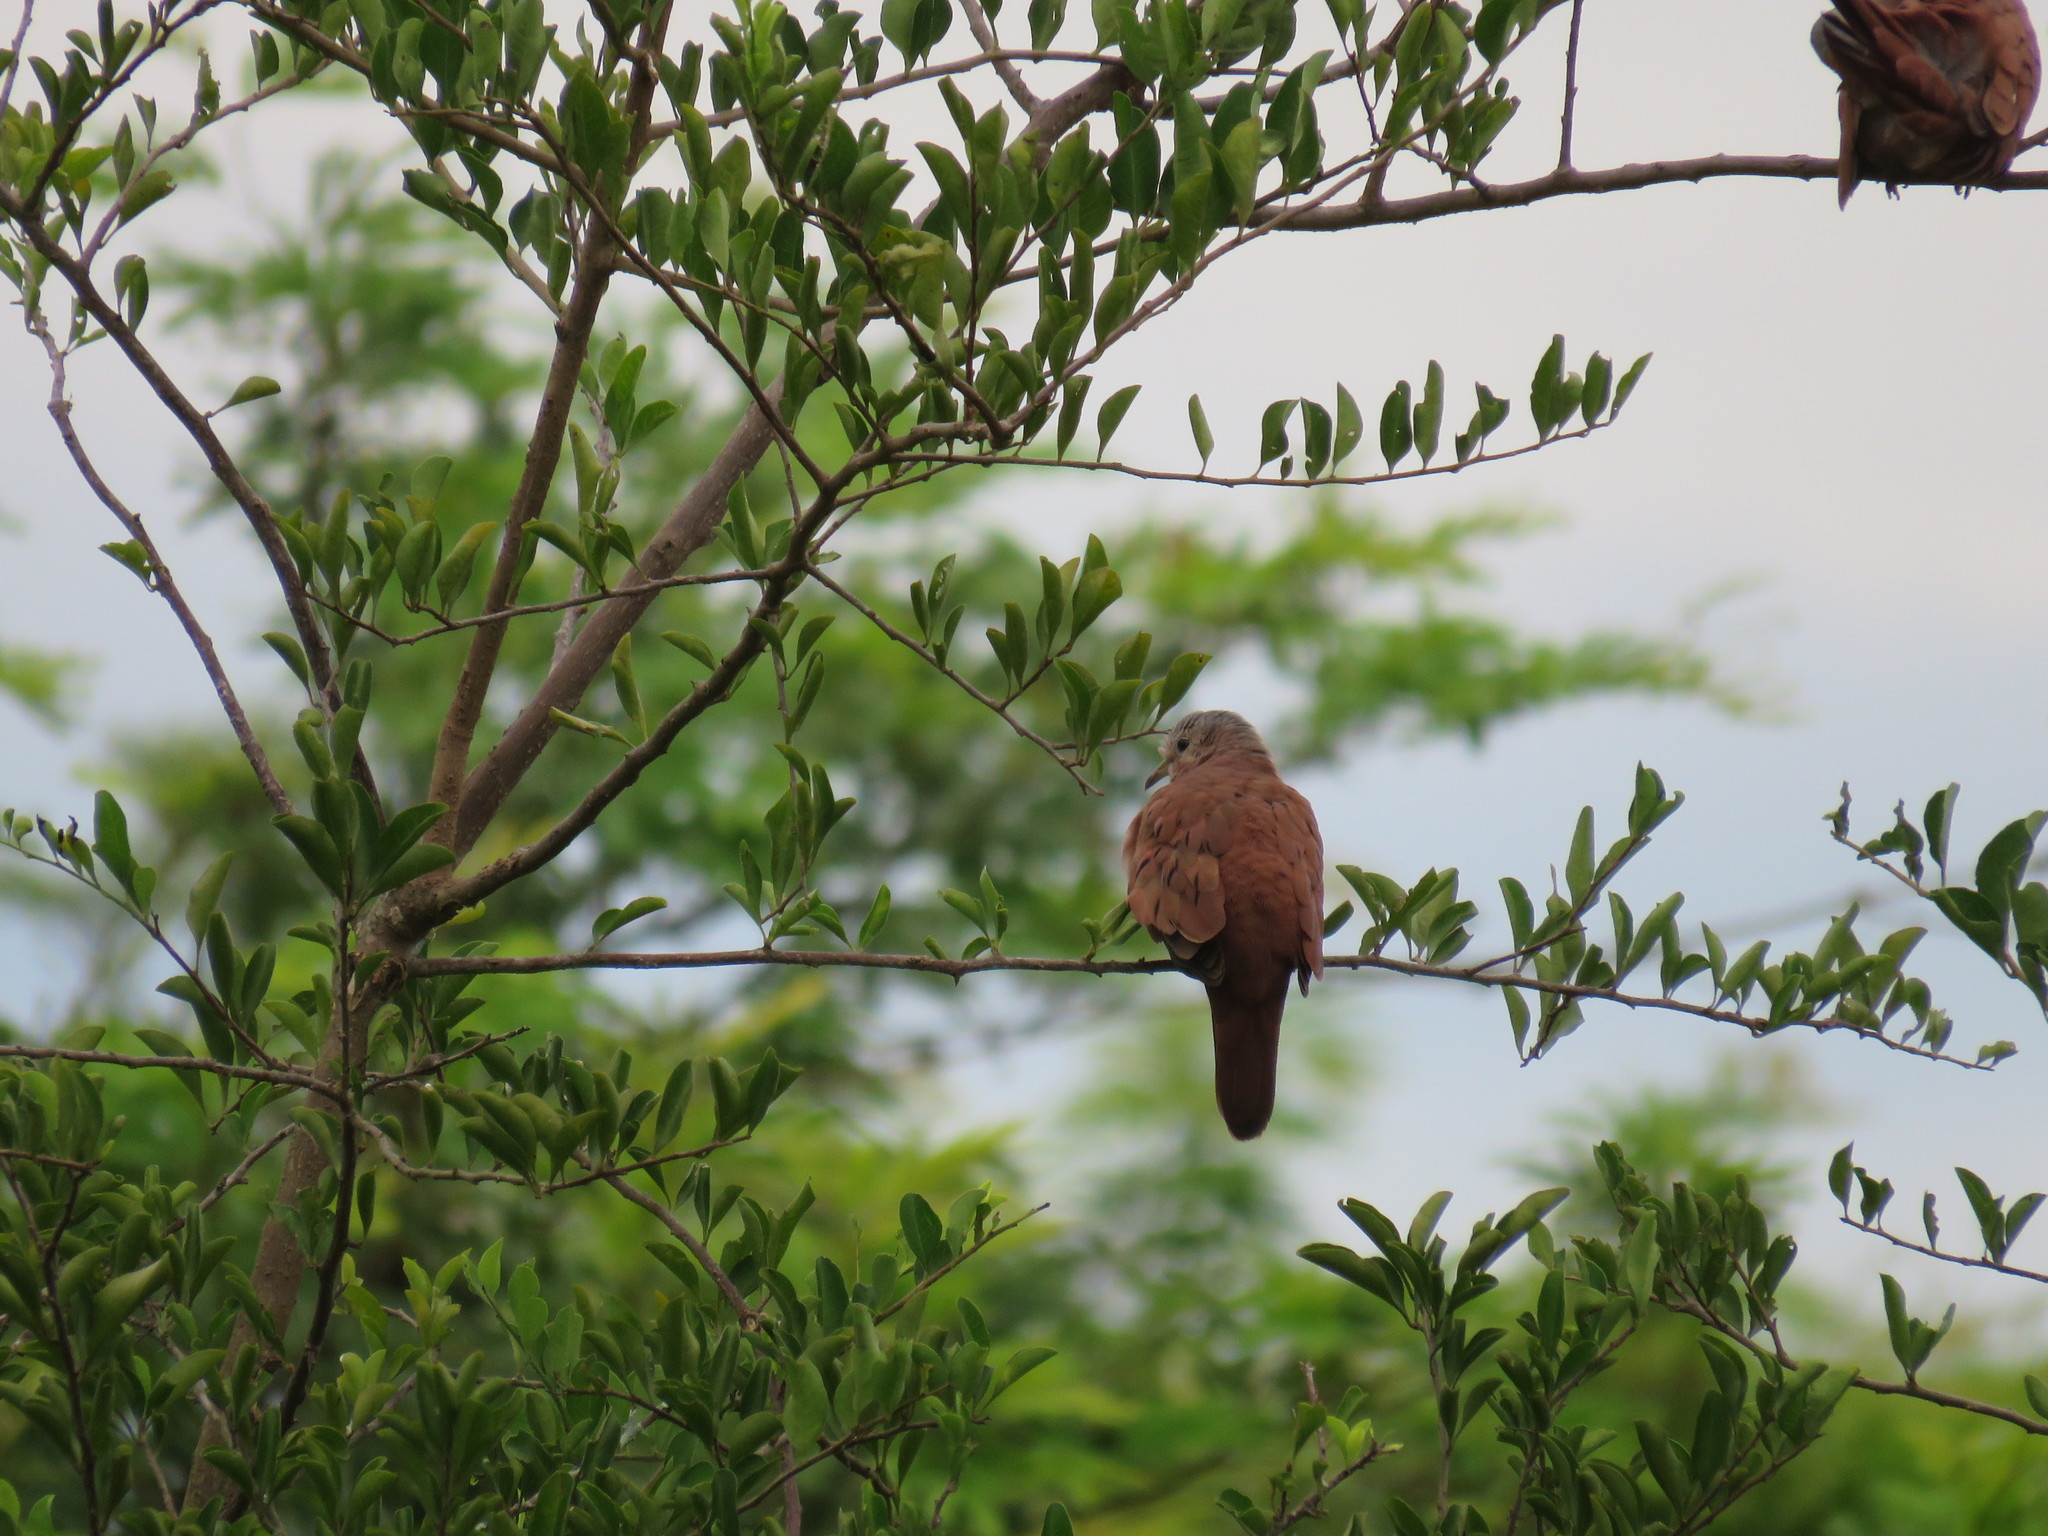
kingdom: Animalia
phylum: Chordata
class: Aves
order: Columbiformes
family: Columbidae
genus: Columbina
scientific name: Columbina talpacoti
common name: Ruddy ground dove
